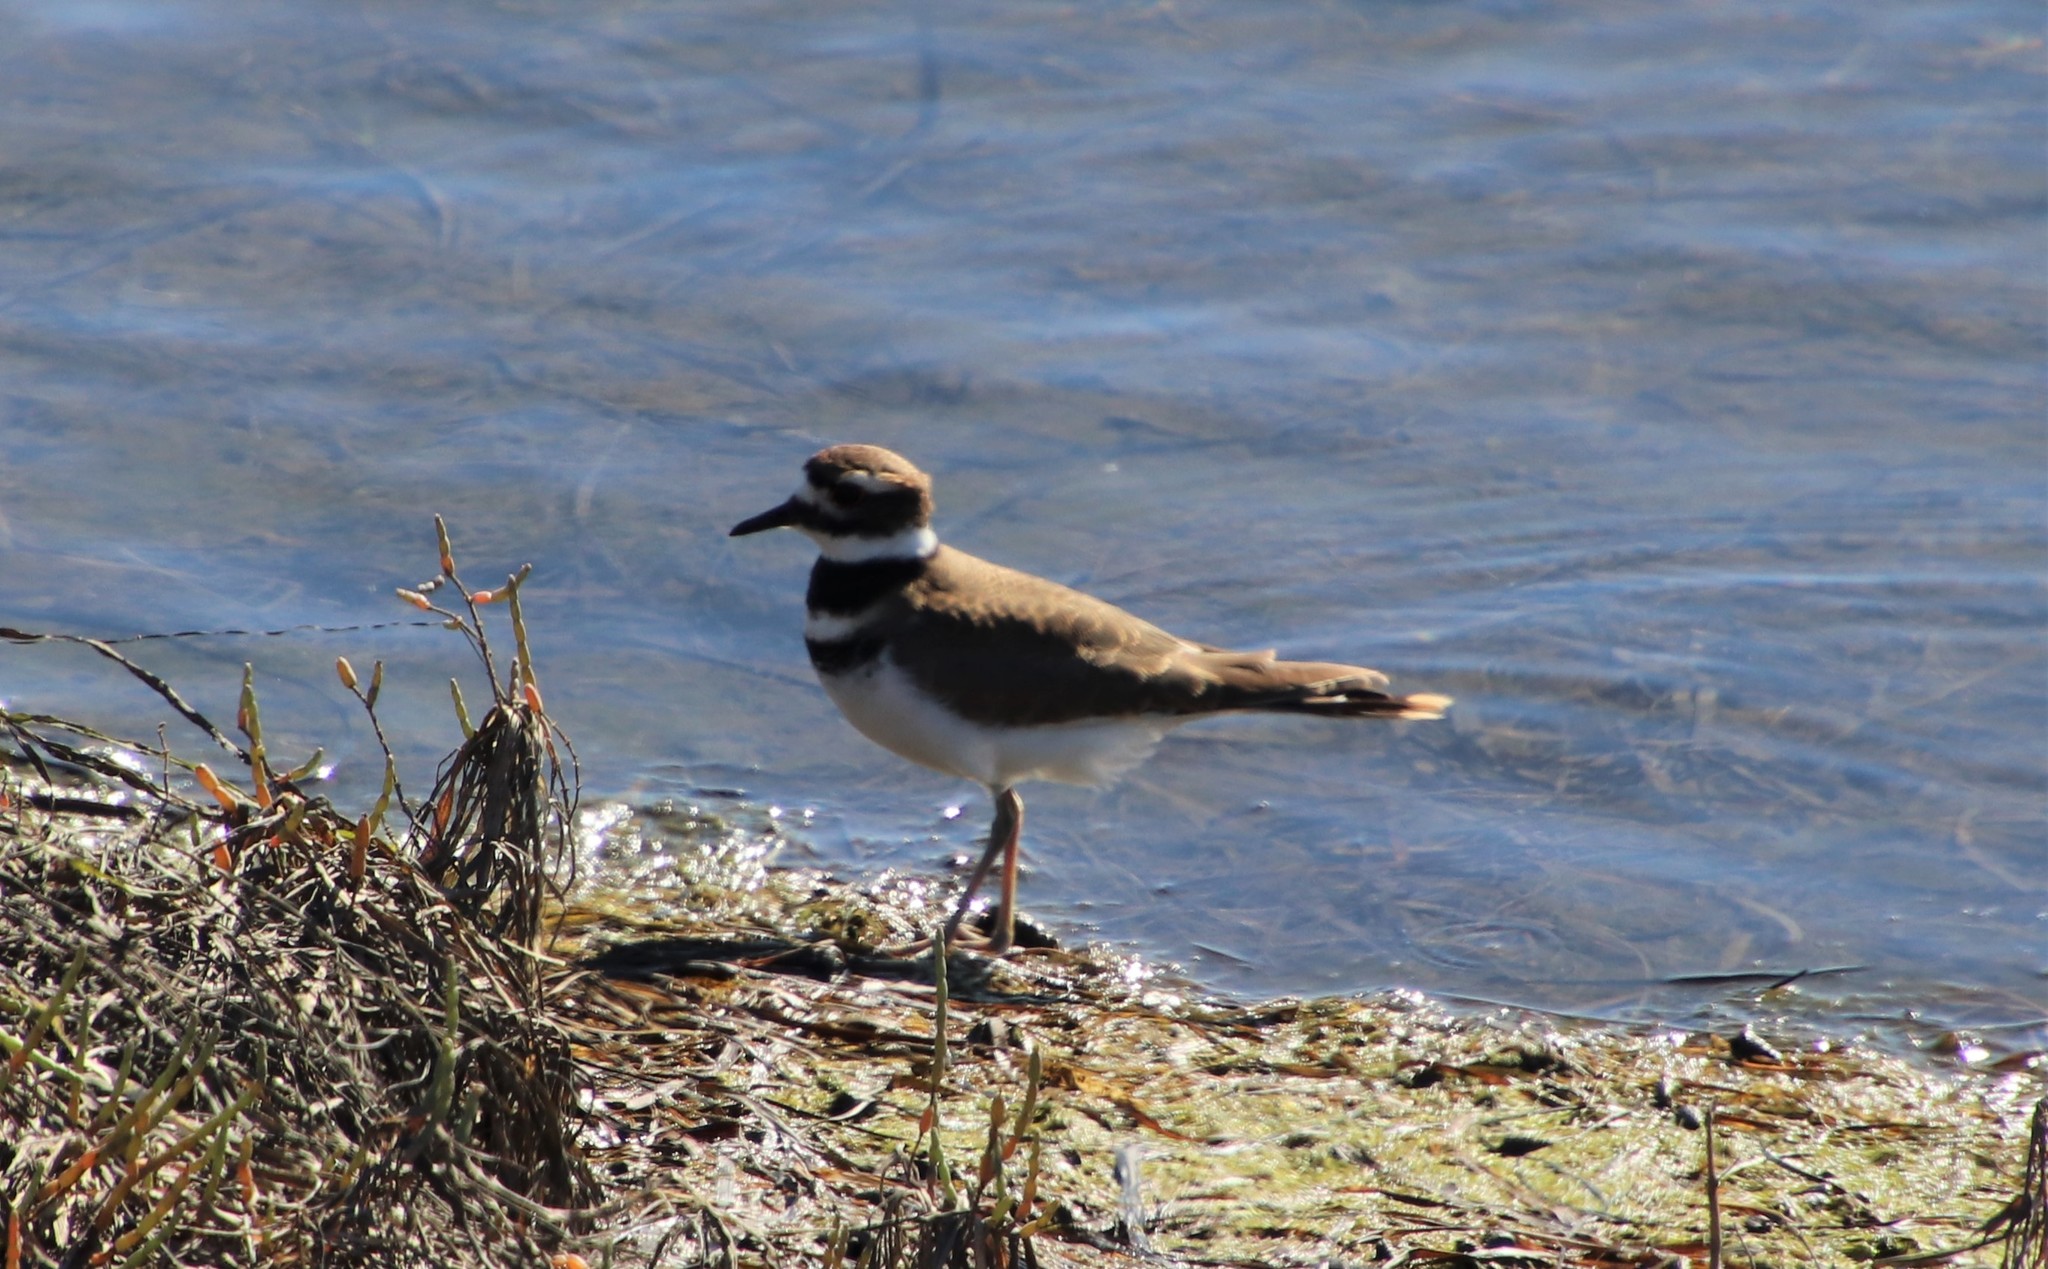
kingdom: Animalia
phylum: Chordata
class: Aves
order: Charadriiformes
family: Charadriidae
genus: Charadrius
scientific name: Charadrius vociferus
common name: Killdeer
